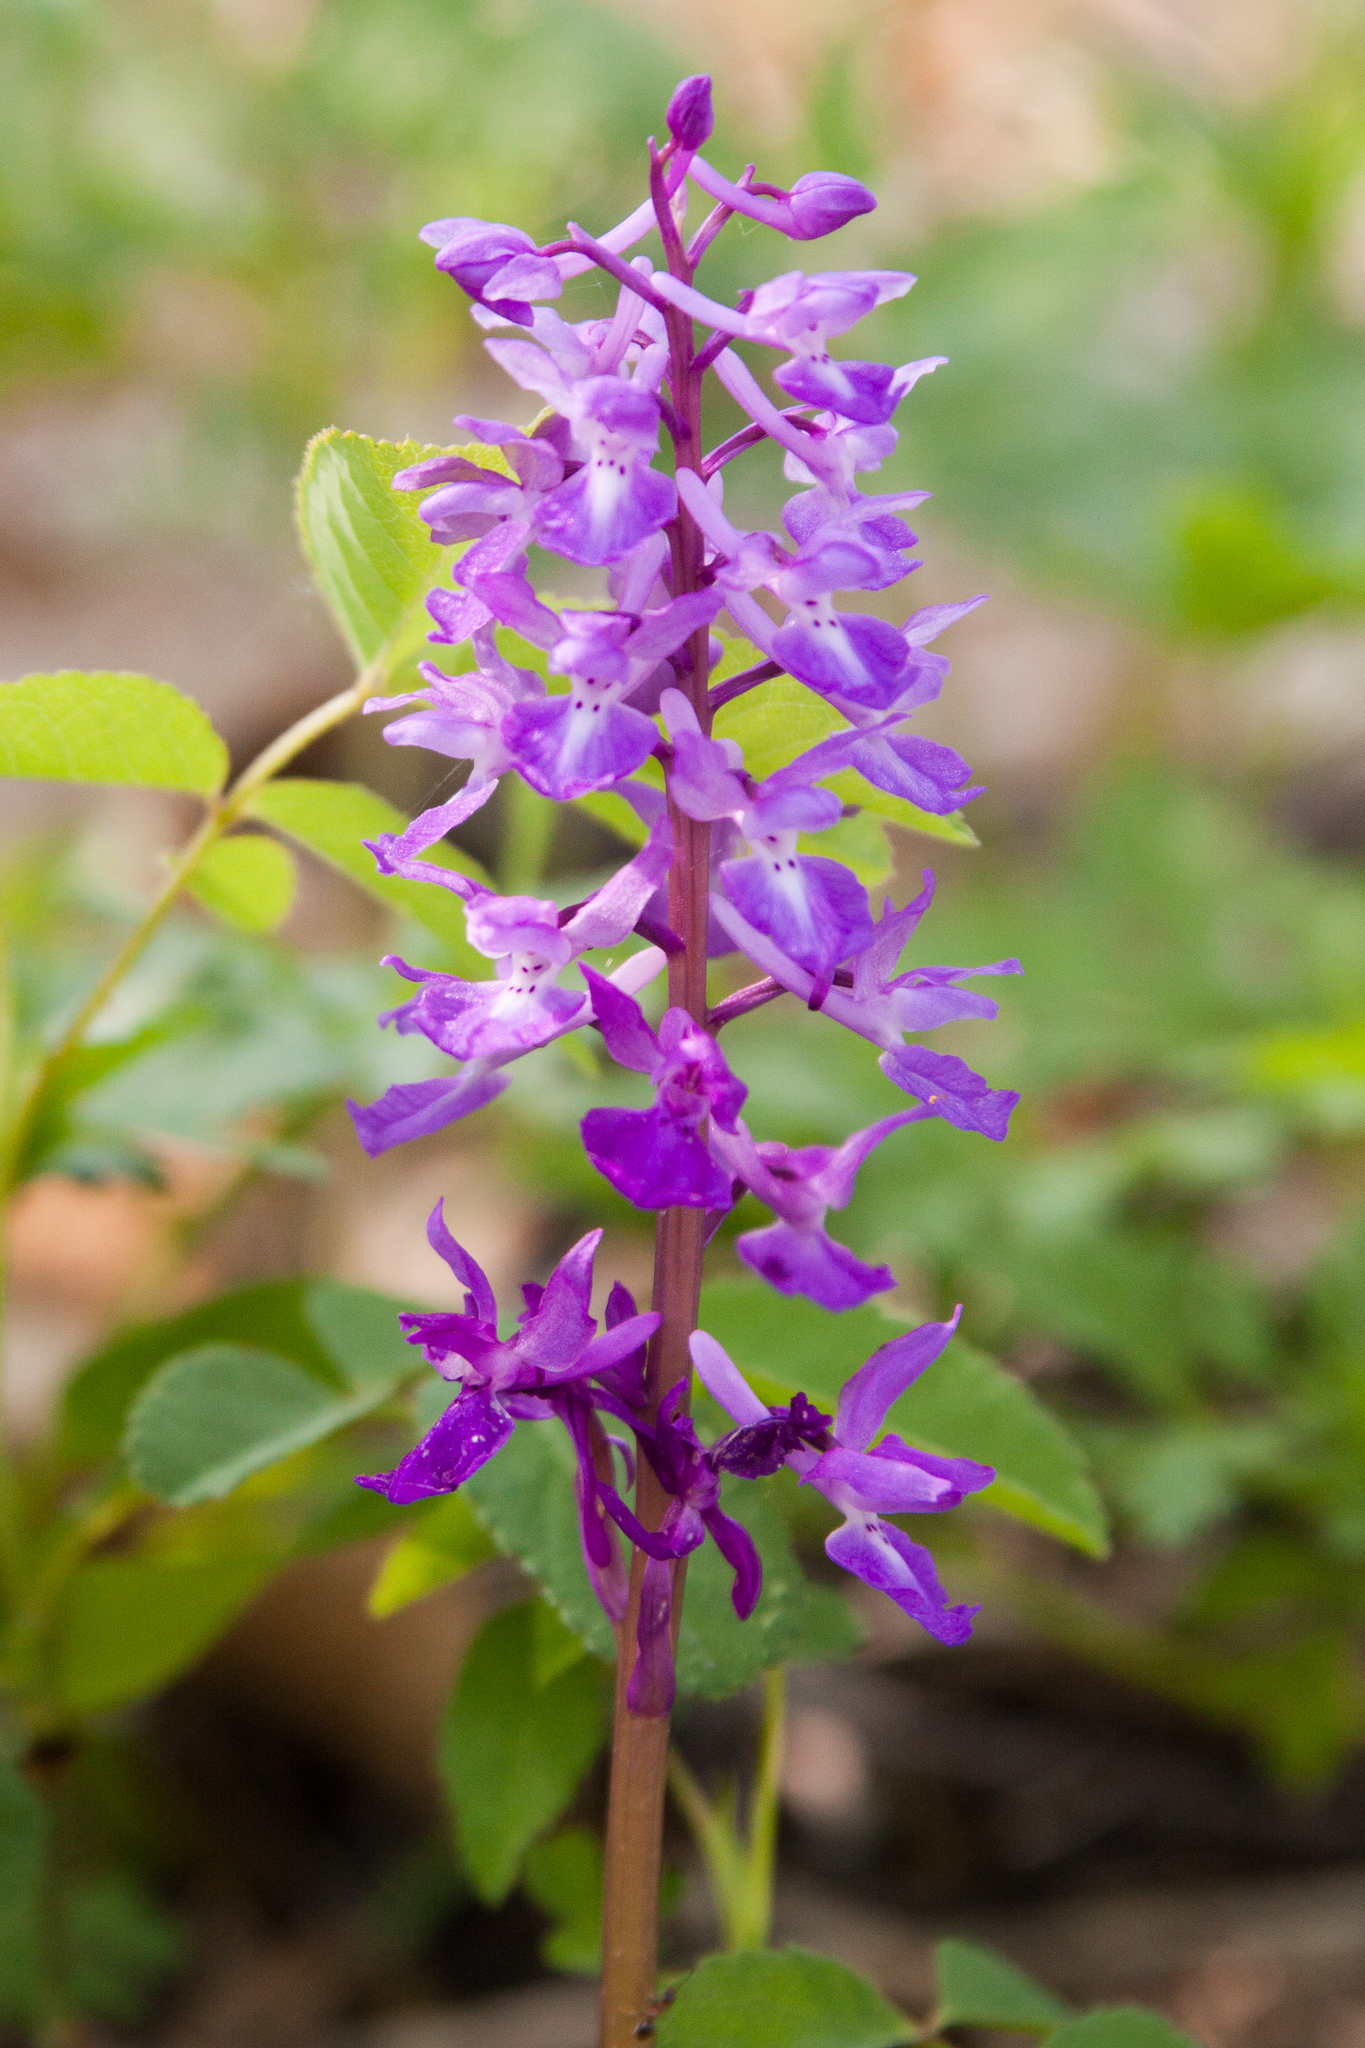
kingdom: Plantae
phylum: Tracheophyta
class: Liliopsida
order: Asparagales
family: Orchidaceae
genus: Orchis
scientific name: Orchis mascula
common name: Early-purple orchid
